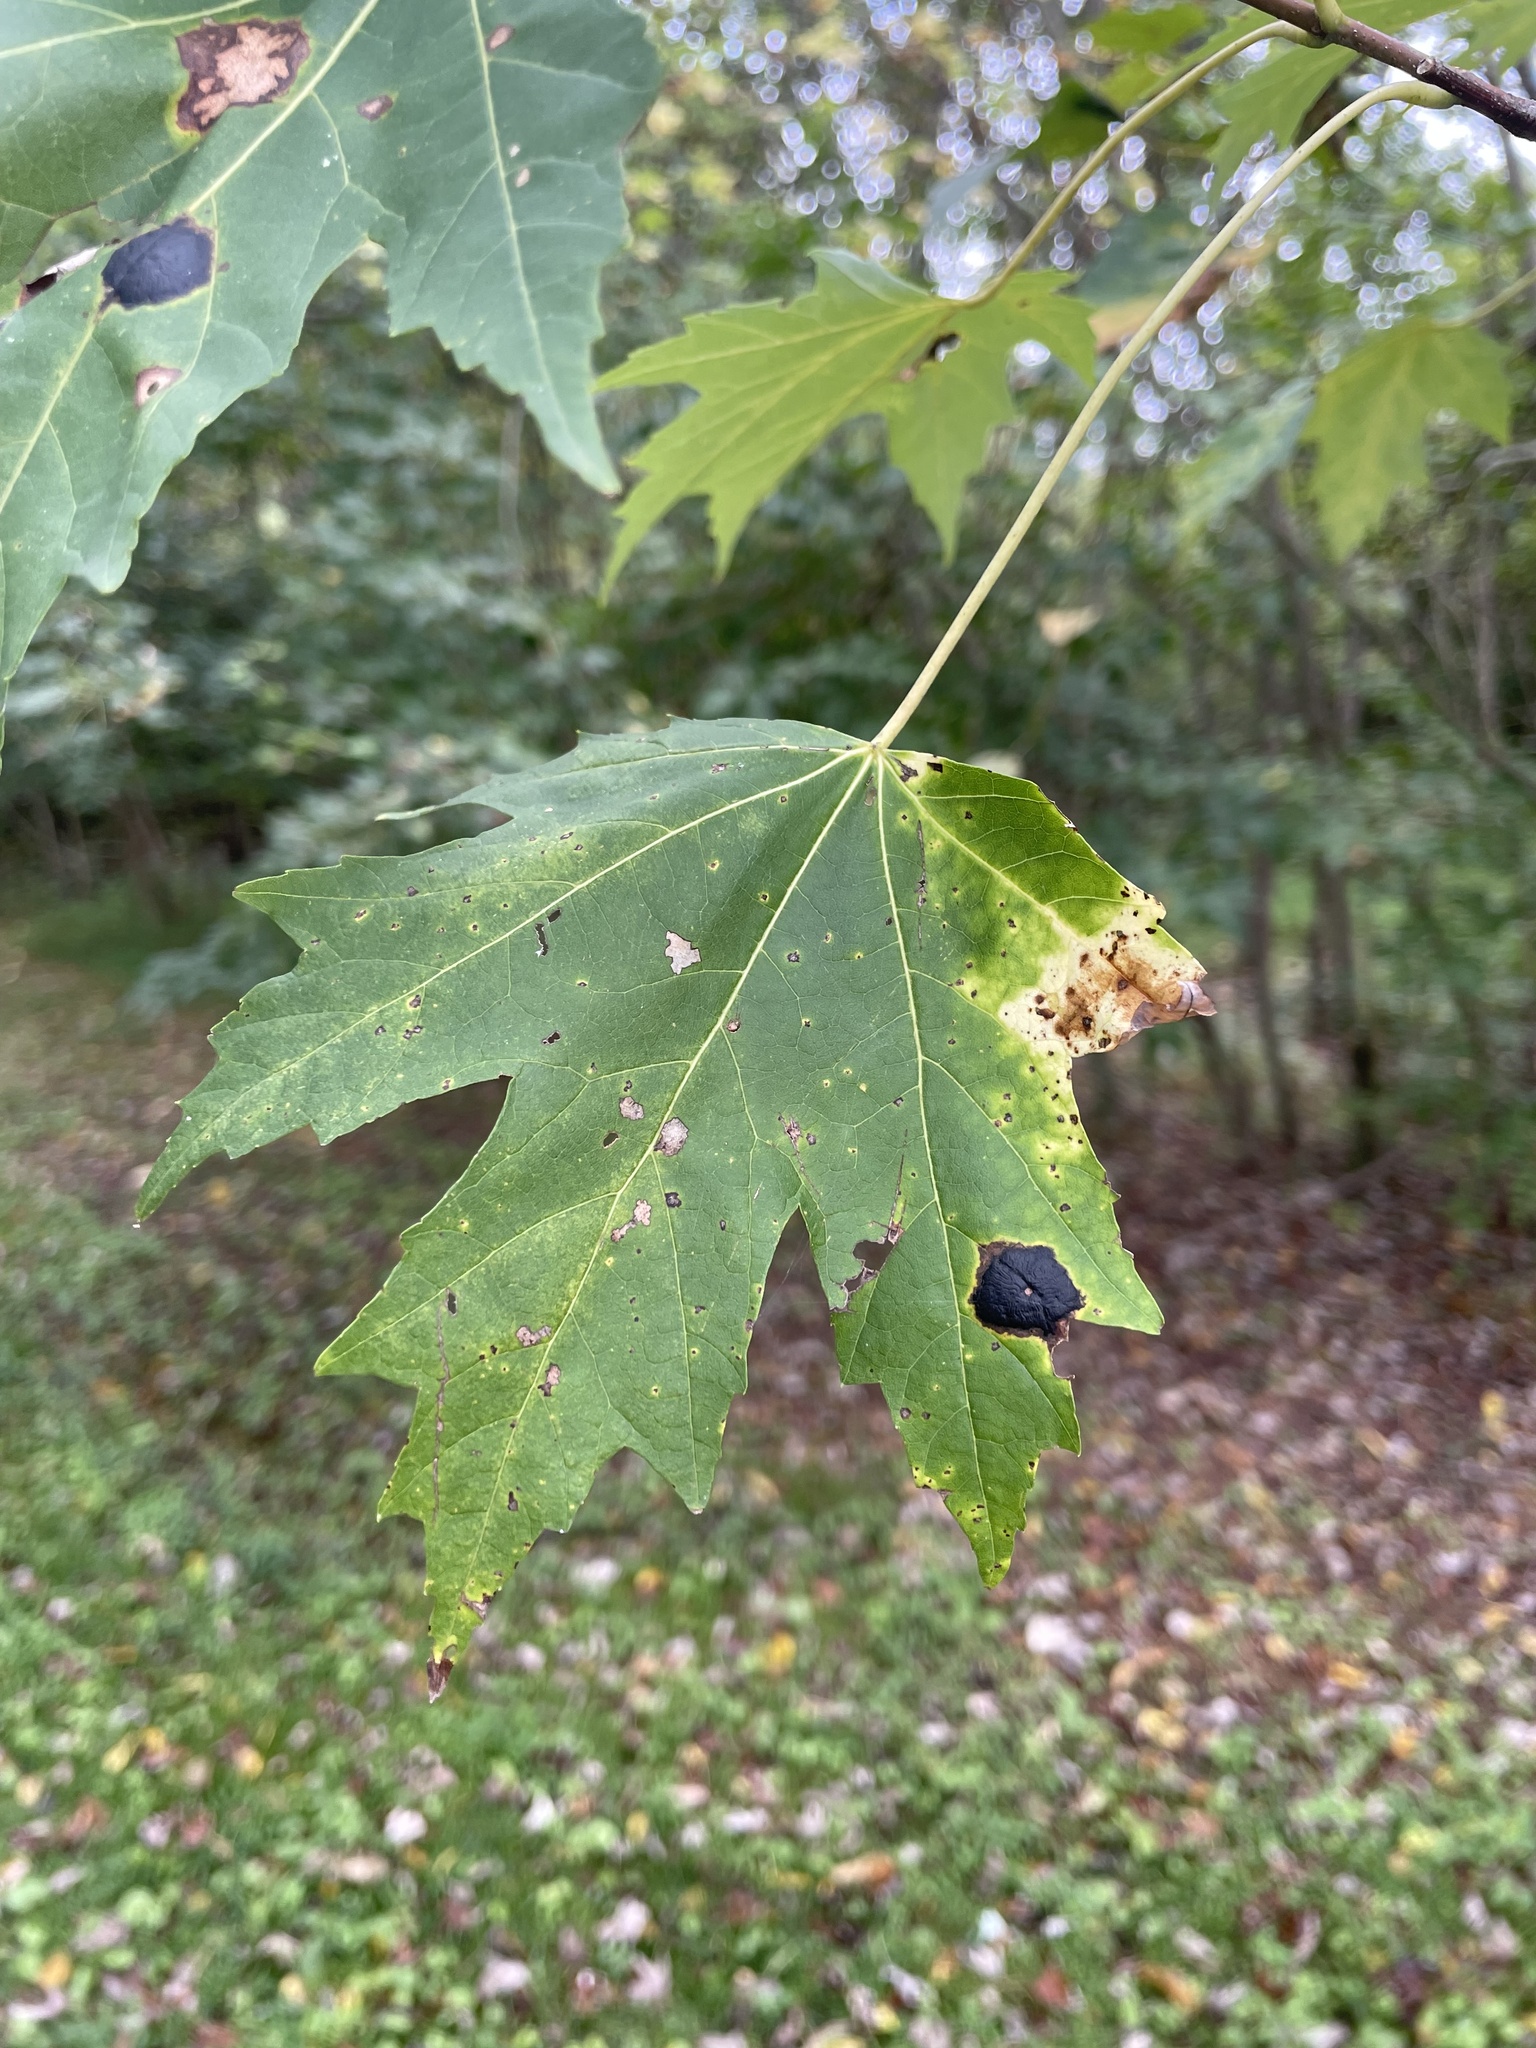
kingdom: Plantae
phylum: Tracheophyta
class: Magnoliopsida
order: Sapindales
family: Sapindaceae
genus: Acer
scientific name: Acer saccharinum
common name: Silver maple
